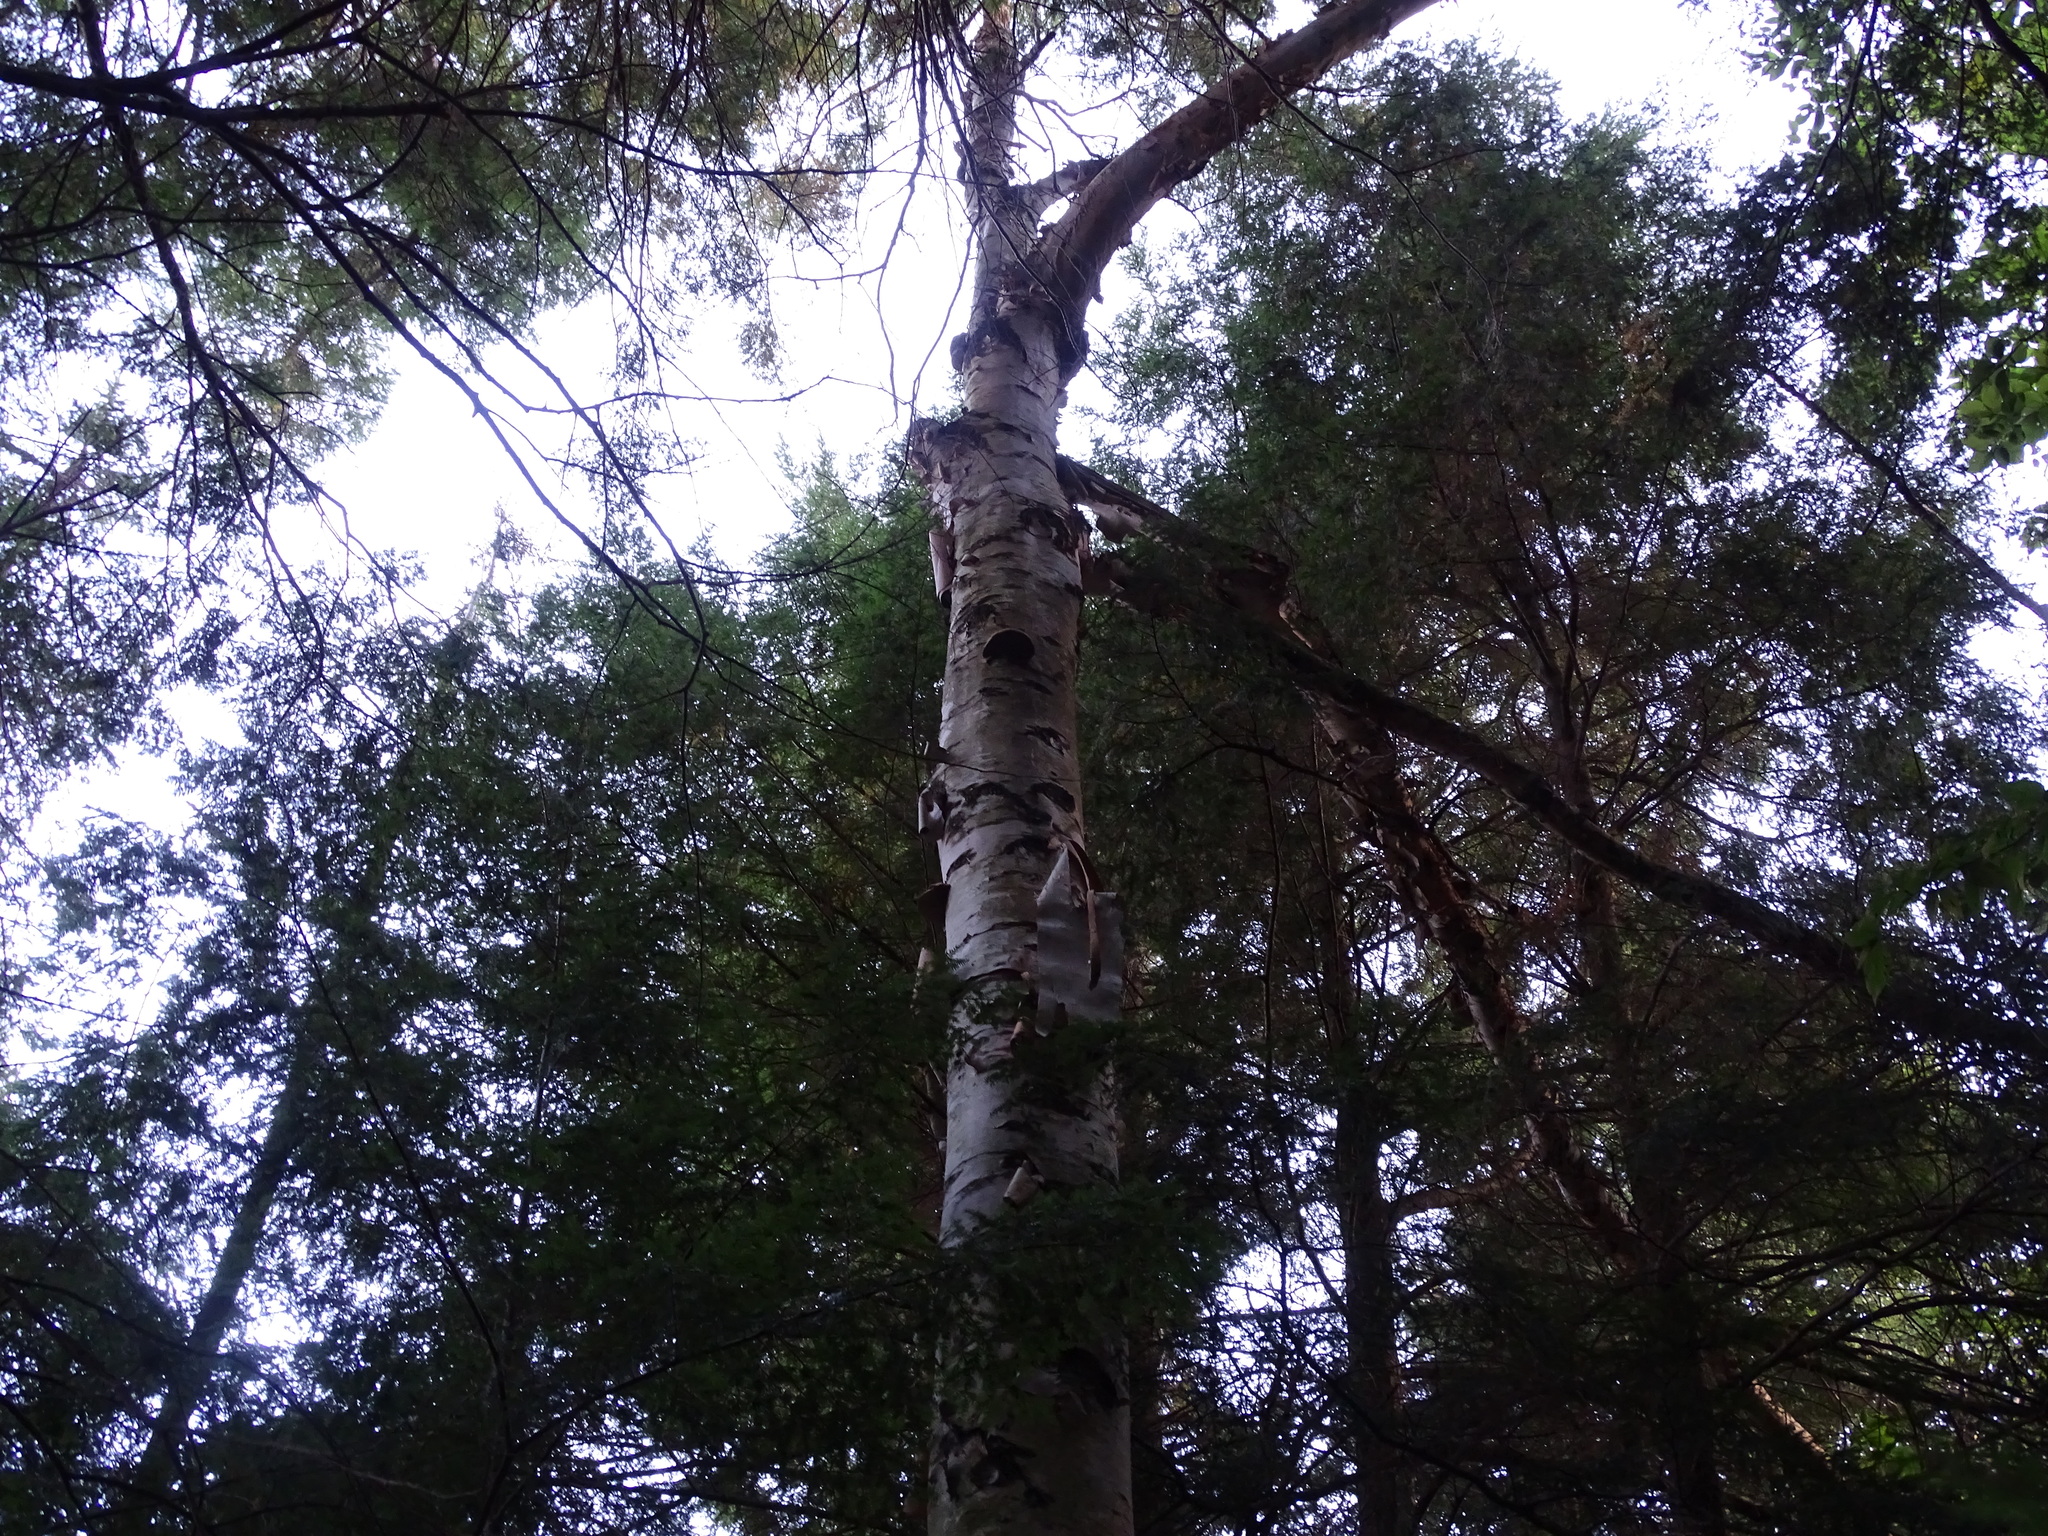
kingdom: Plantae
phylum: Tracheophyta
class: Magnoliopsida
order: Fagales
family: Betulaceae
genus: Betula
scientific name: Betula papyrifera
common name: Paper birch
